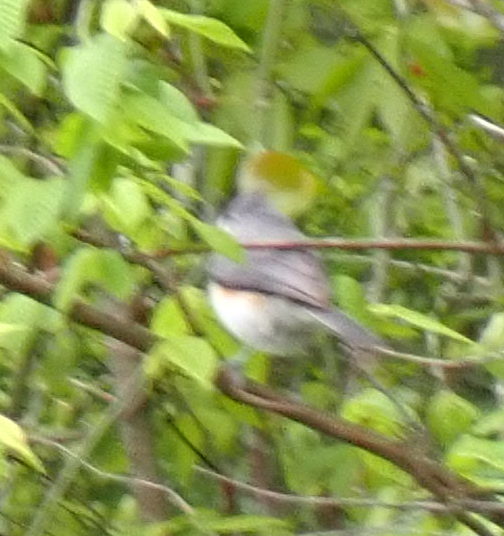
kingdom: Animalia
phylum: Chordata
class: Aves
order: Passeriformes
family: Paridae
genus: Baeolophus
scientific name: Baeolophus bicolor
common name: Tufted titmouse
